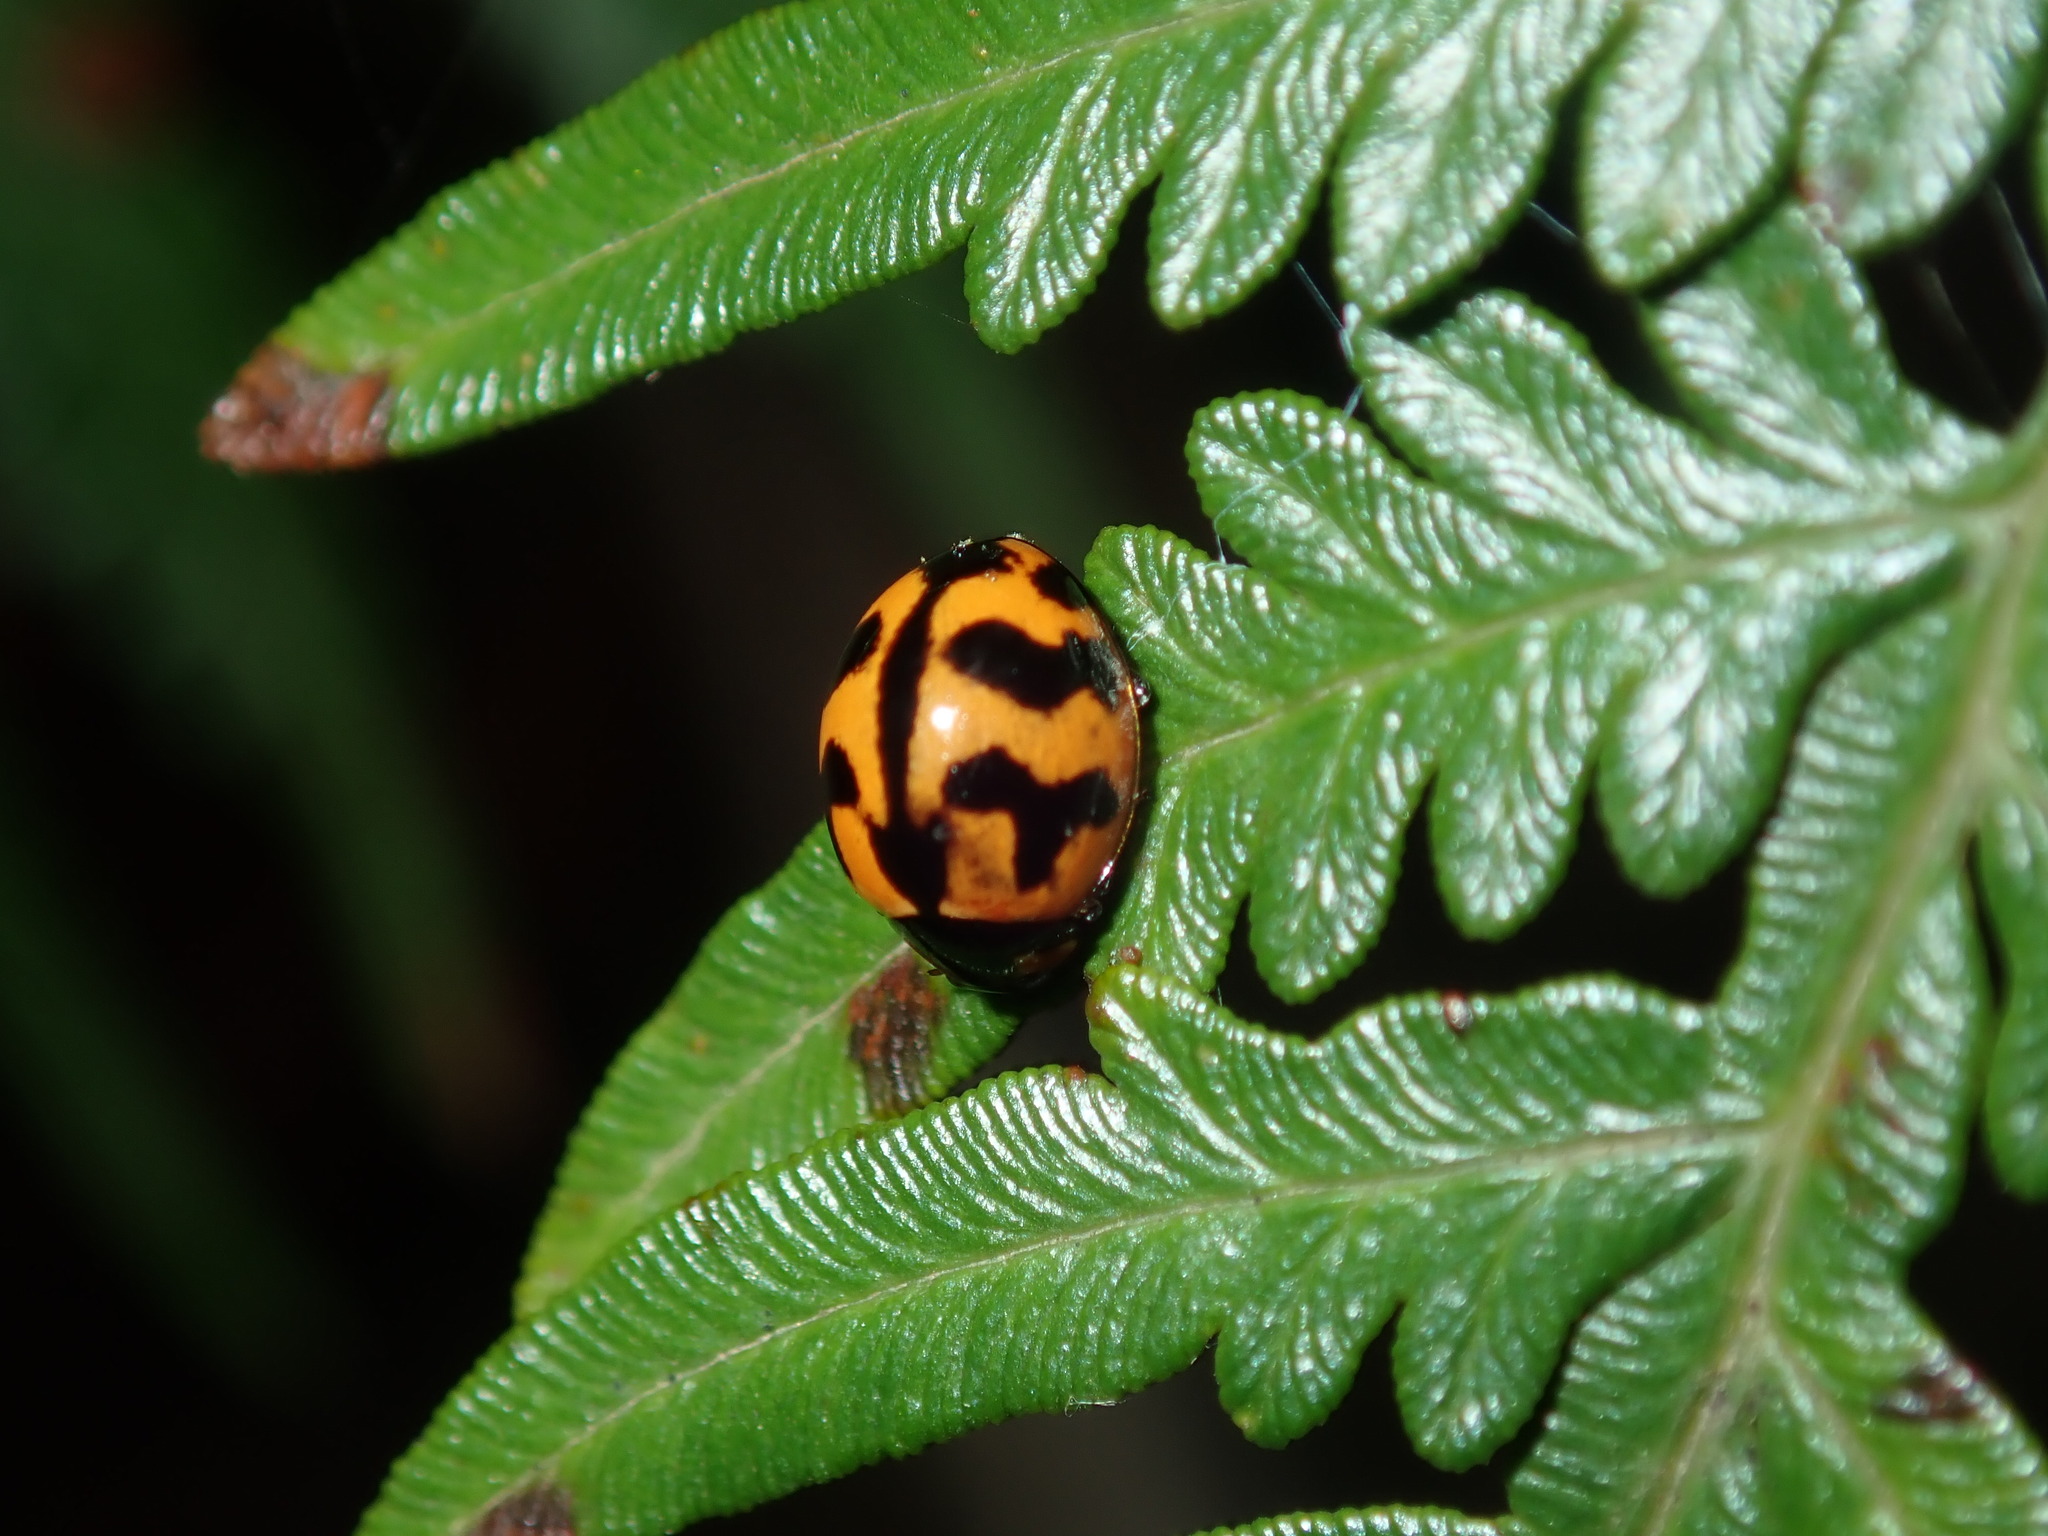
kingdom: Animalia
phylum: Arthropoda
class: Insecta
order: Coleoptera
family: Coccinellidae
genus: Coccinella
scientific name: Coccinella transversalis
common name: Transverse lady beetle
